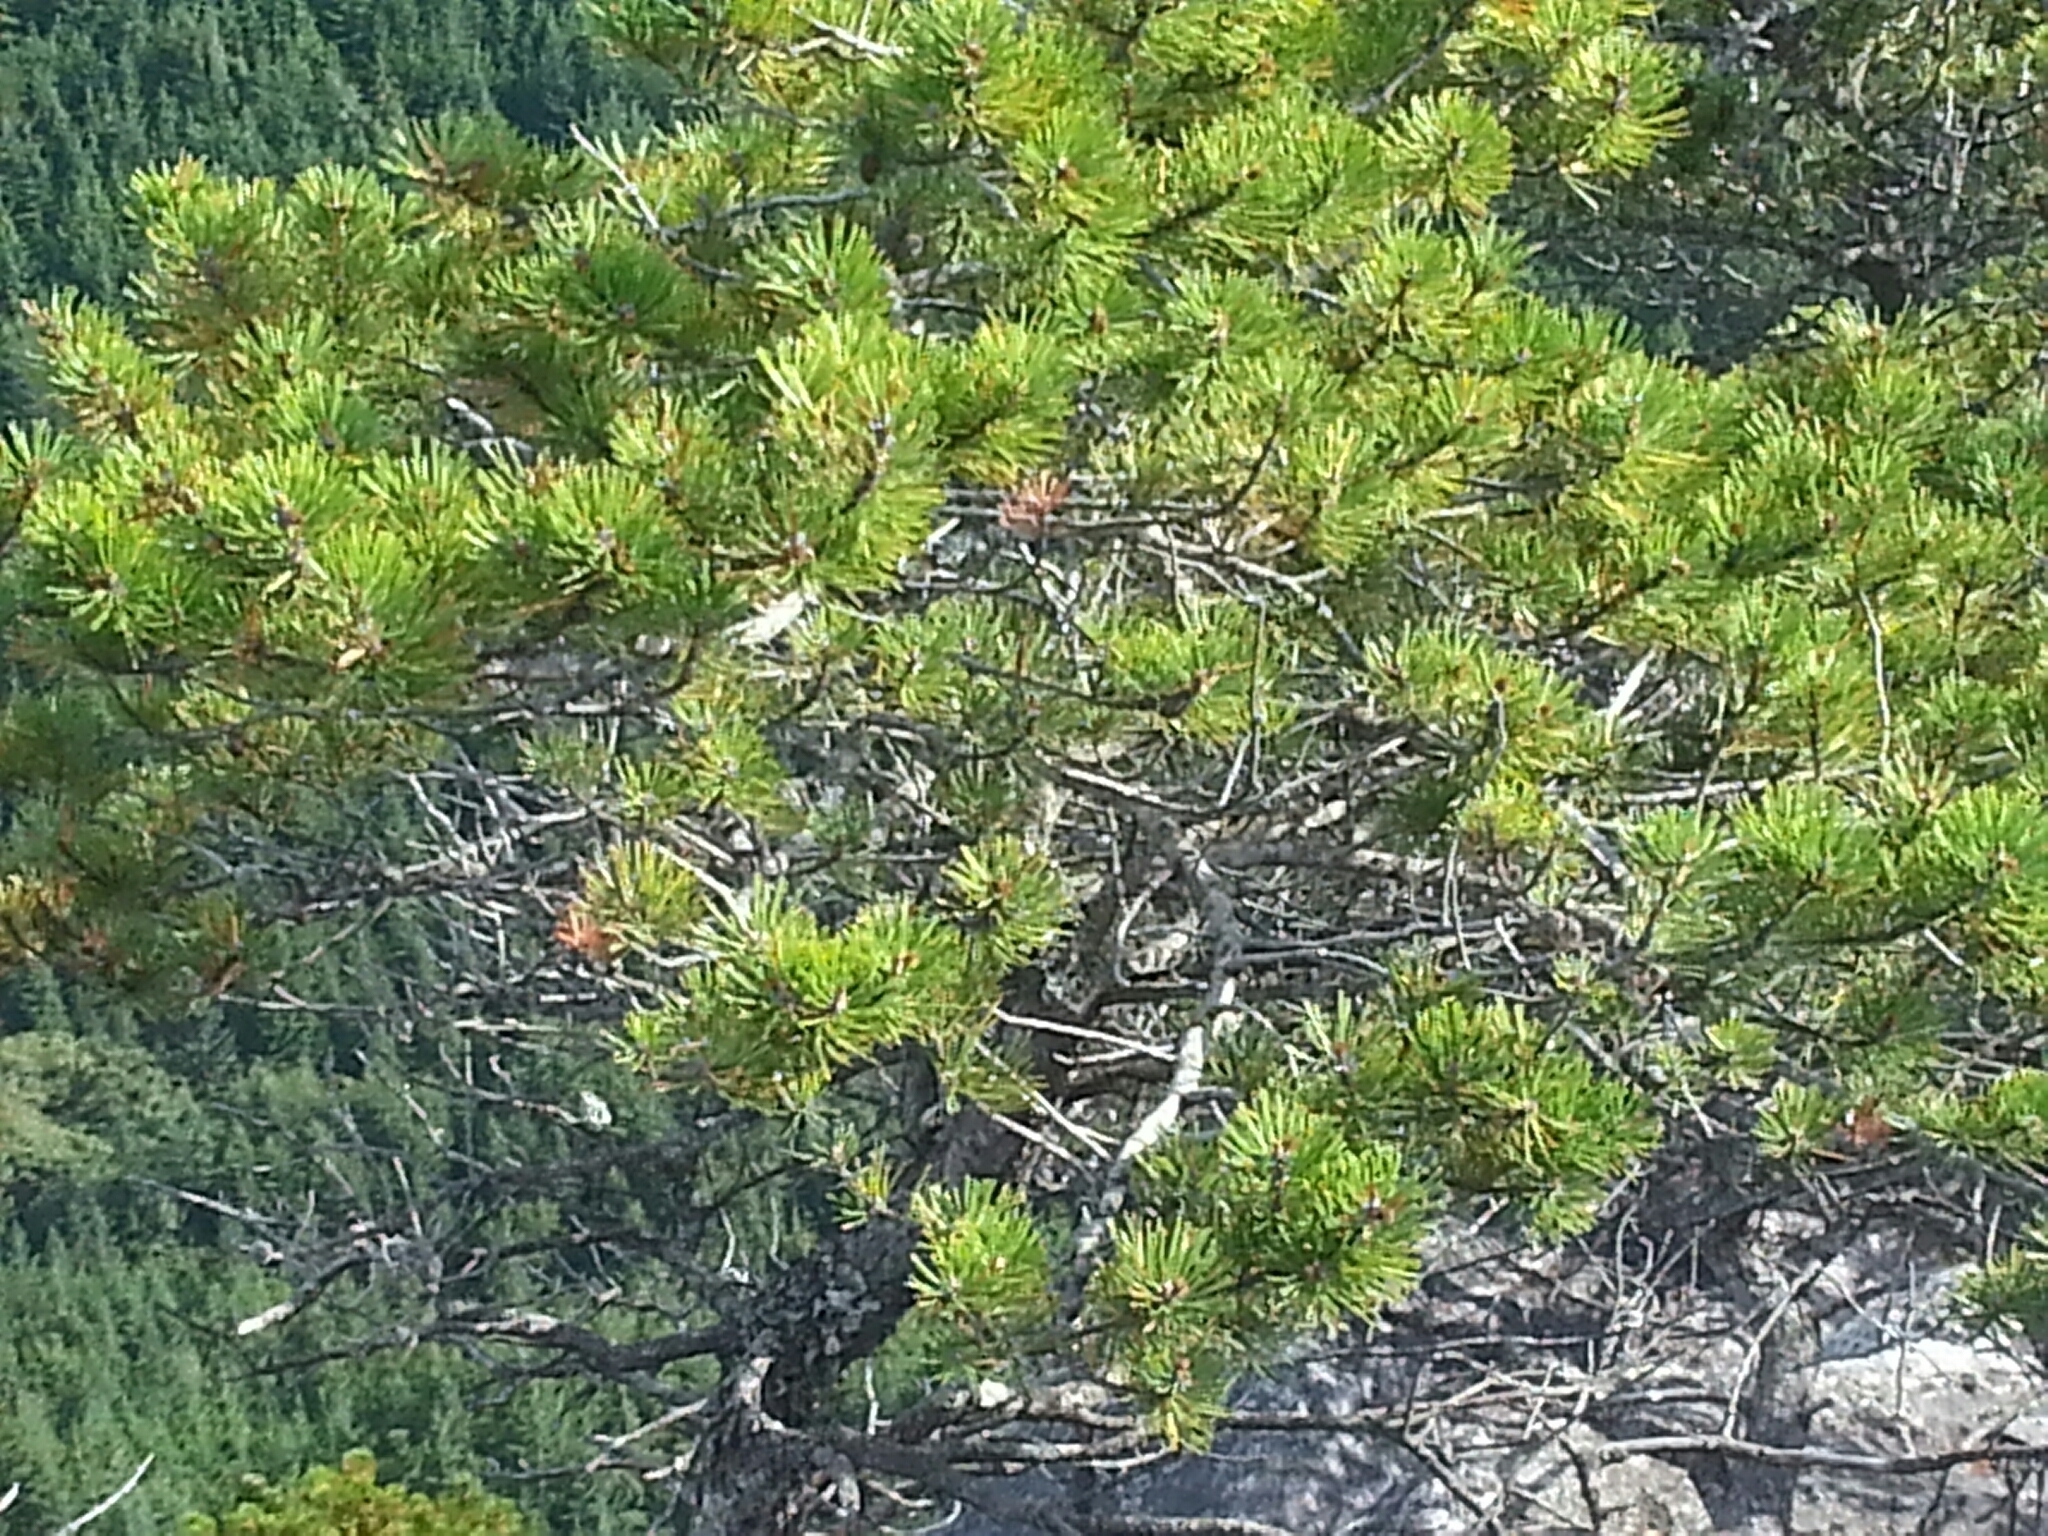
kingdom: Plantae
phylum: Tracheophyta
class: Pinopsida
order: Pinales
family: Pinaceae
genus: Pinus
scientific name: Pinus contorta
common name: Lodgepole pine
